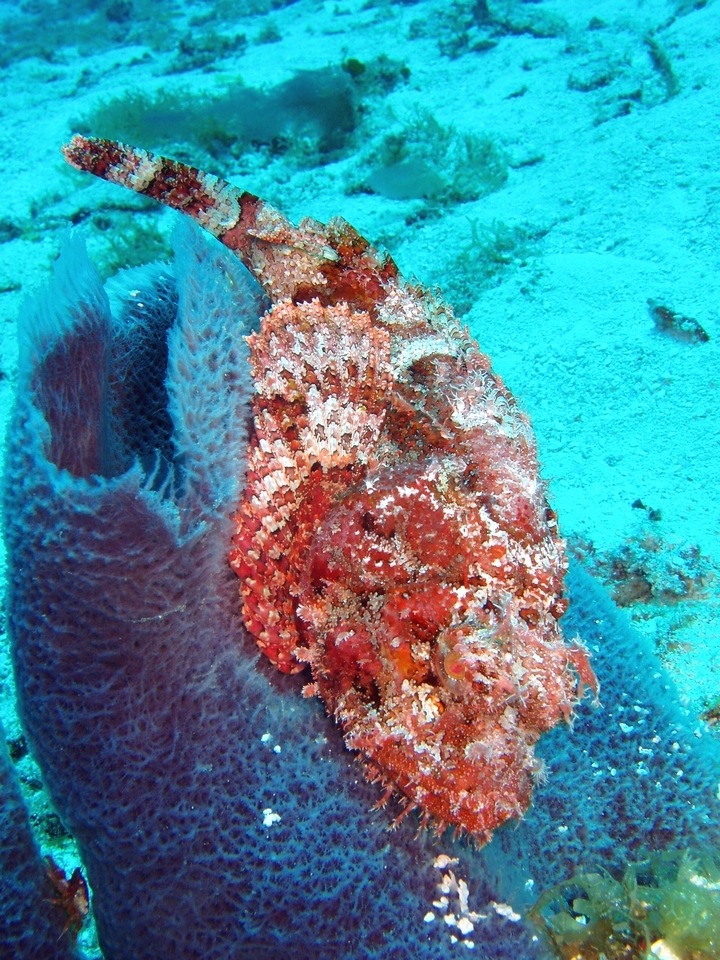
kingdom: Animalia
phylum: Chordata
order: Scorpaeniformes
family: Scorpaenidae
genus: Scorpaena
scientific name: Scorpaena plumieri
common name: Spotted scorpionfish
